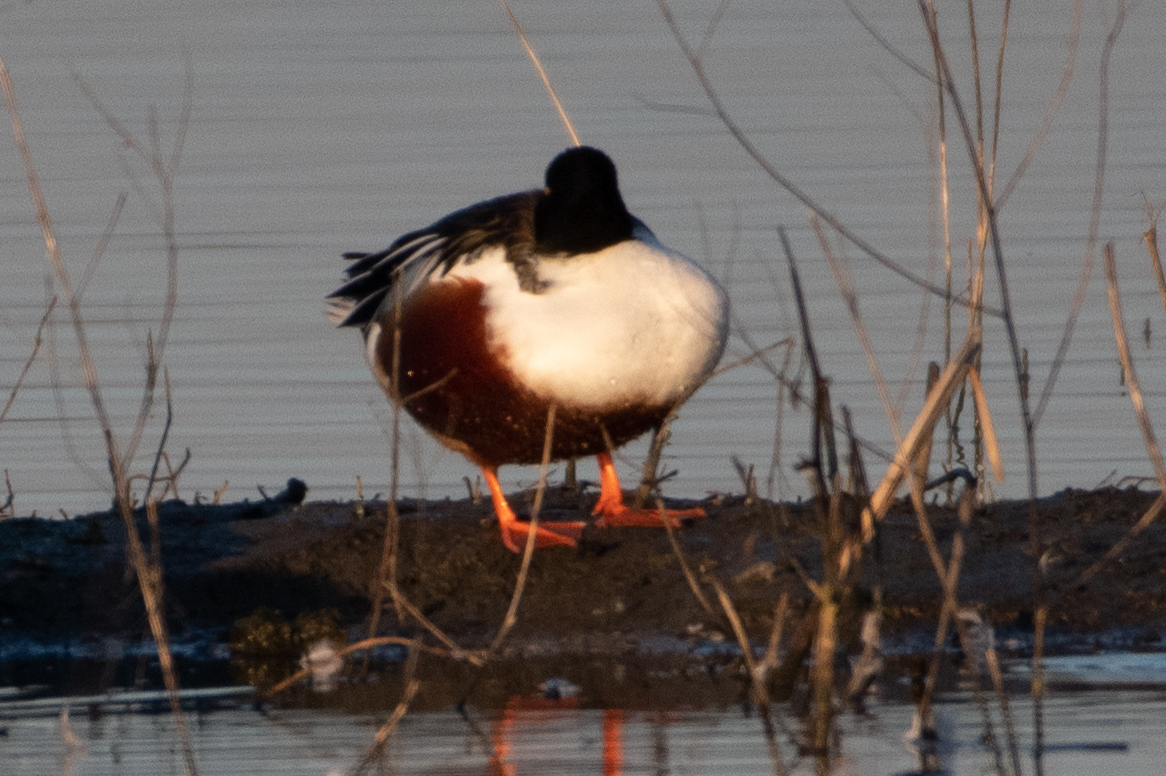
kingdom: Animalia
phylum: Chordata
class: Aves
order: Anseriformes
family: Anatidae
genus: Spatula
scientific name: Spatula clypeata
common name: Northern shoveler
